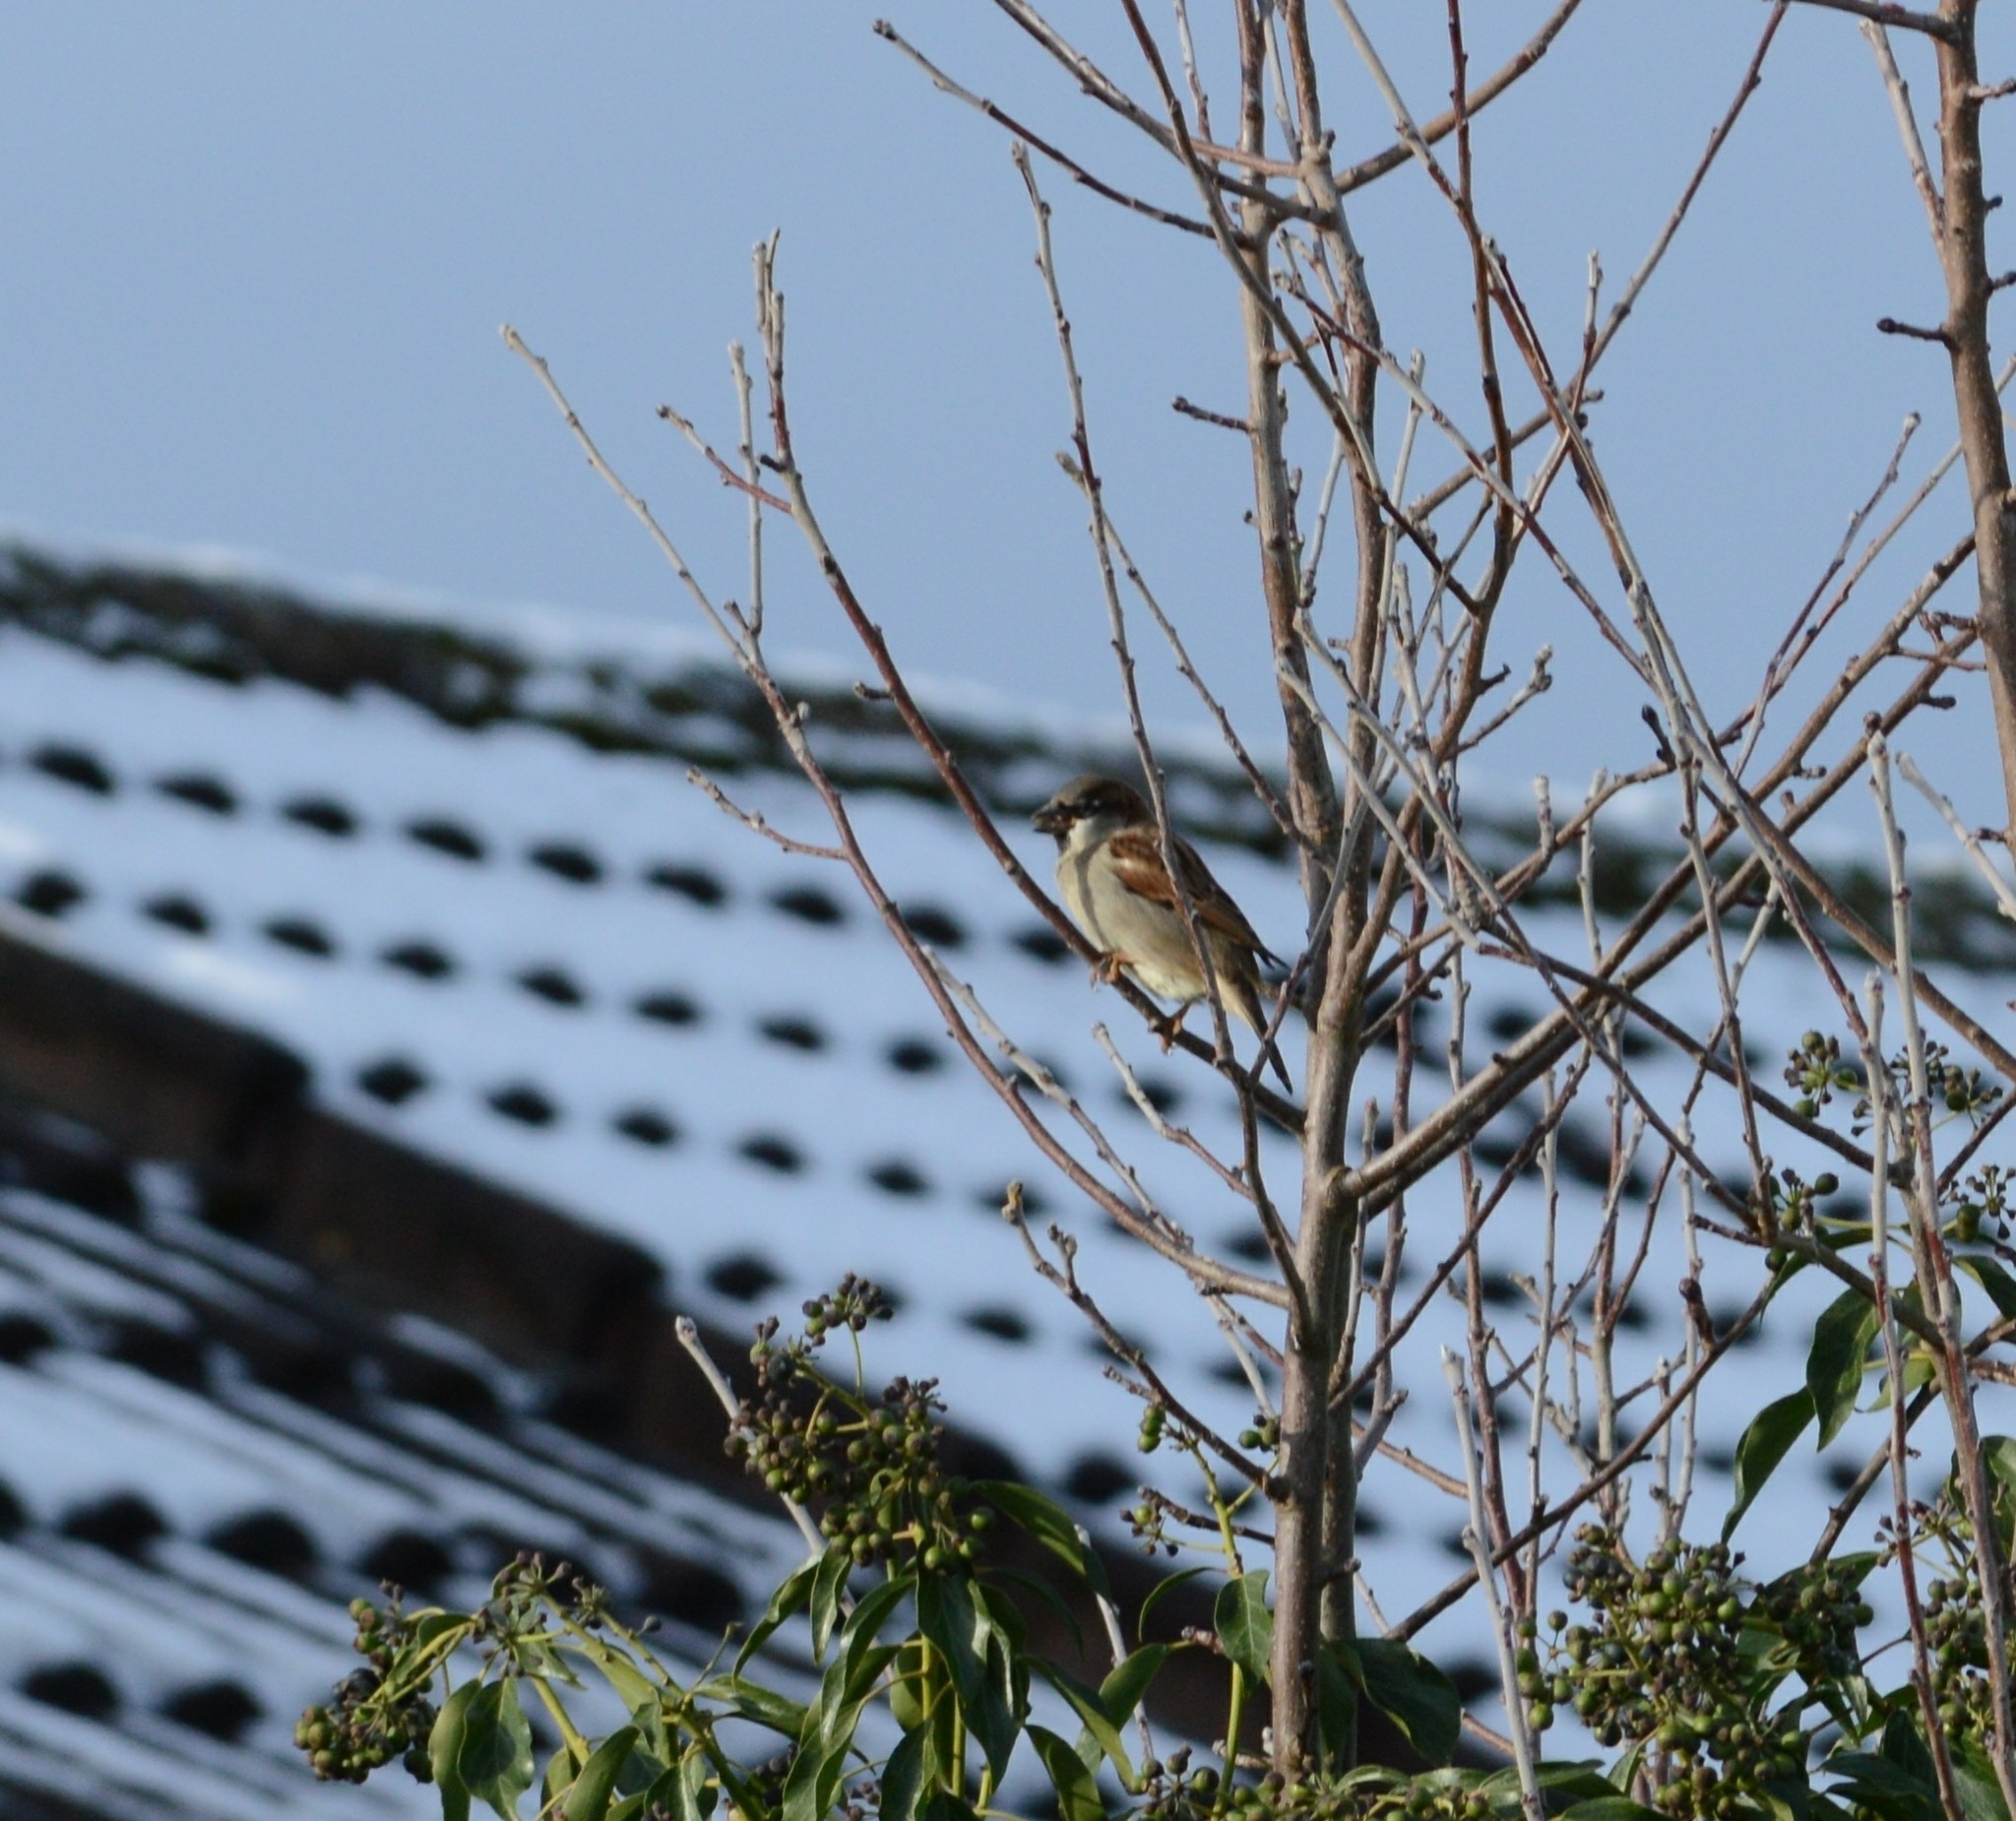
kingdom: Animalia
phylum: Chordata
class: Aves
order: Passeriformes
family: Passeridae
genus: Passer
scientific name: Passer domesticus
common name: House sparrow
